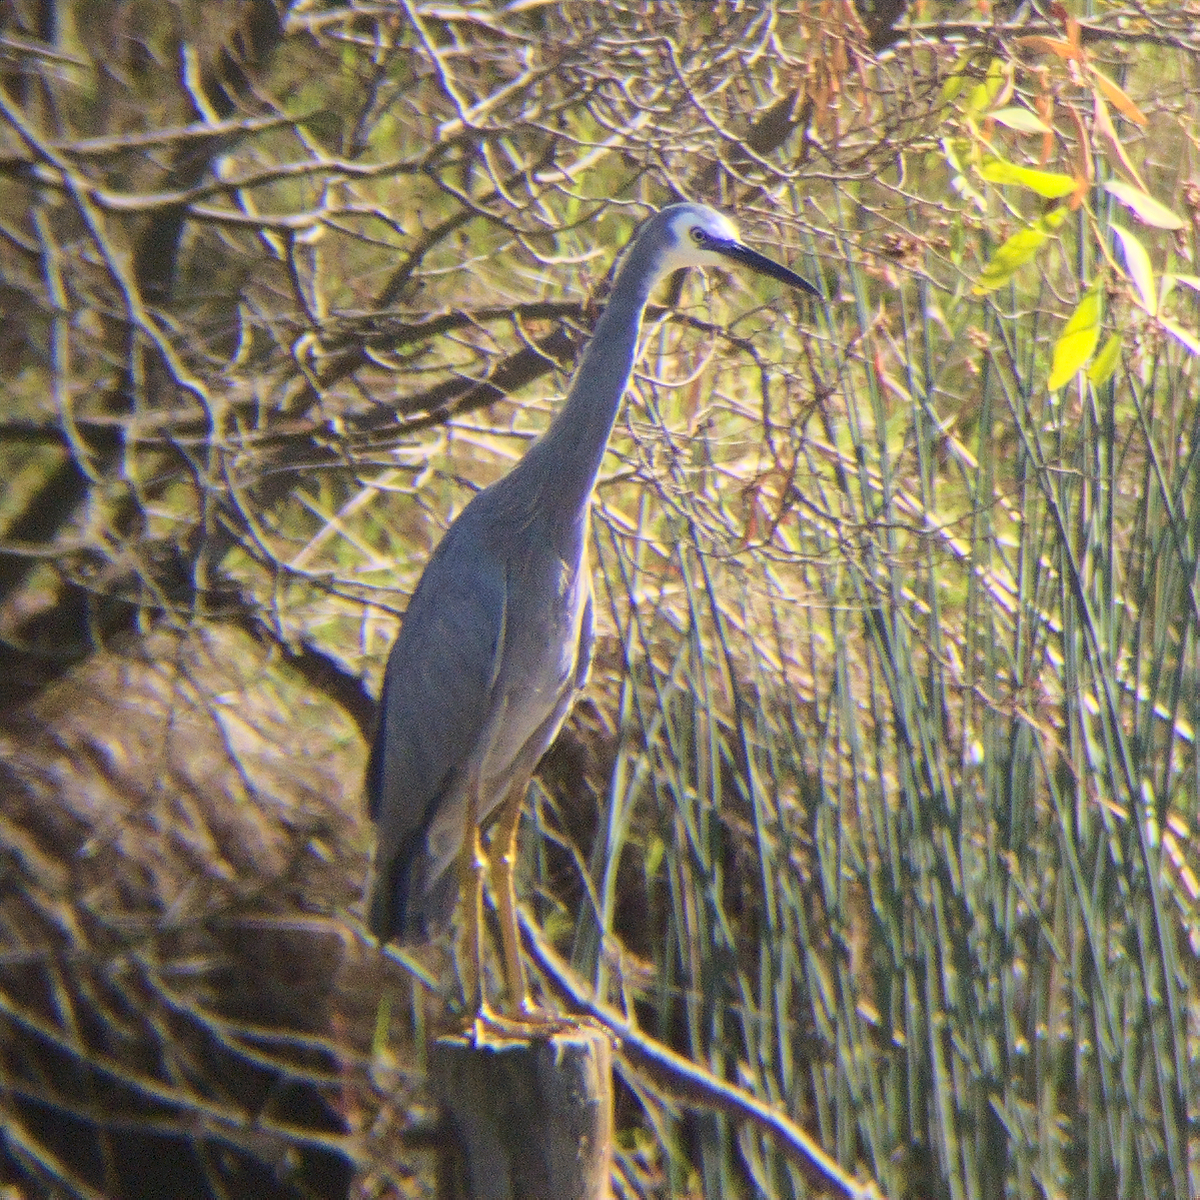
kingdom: Animalia
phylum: Chordata
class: Aves
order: Pelecaniformes
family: Ardeidae
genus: Egretta
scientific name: Egretta novaehollandiae
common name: White-faced heron
